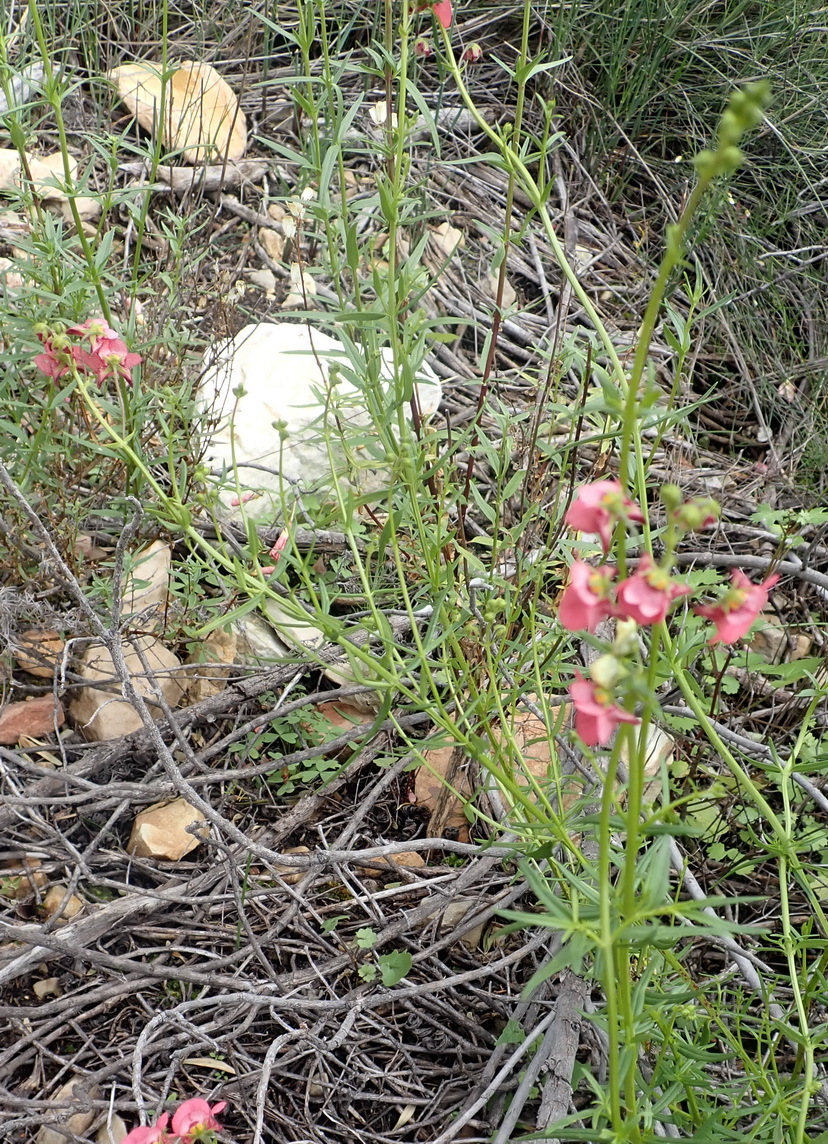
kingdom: Plantae
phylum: Tracheophyta
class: Magnoliopsida
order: Lamiales
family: Scrophulariaceae
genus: Diascia
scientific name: Diascia patens
